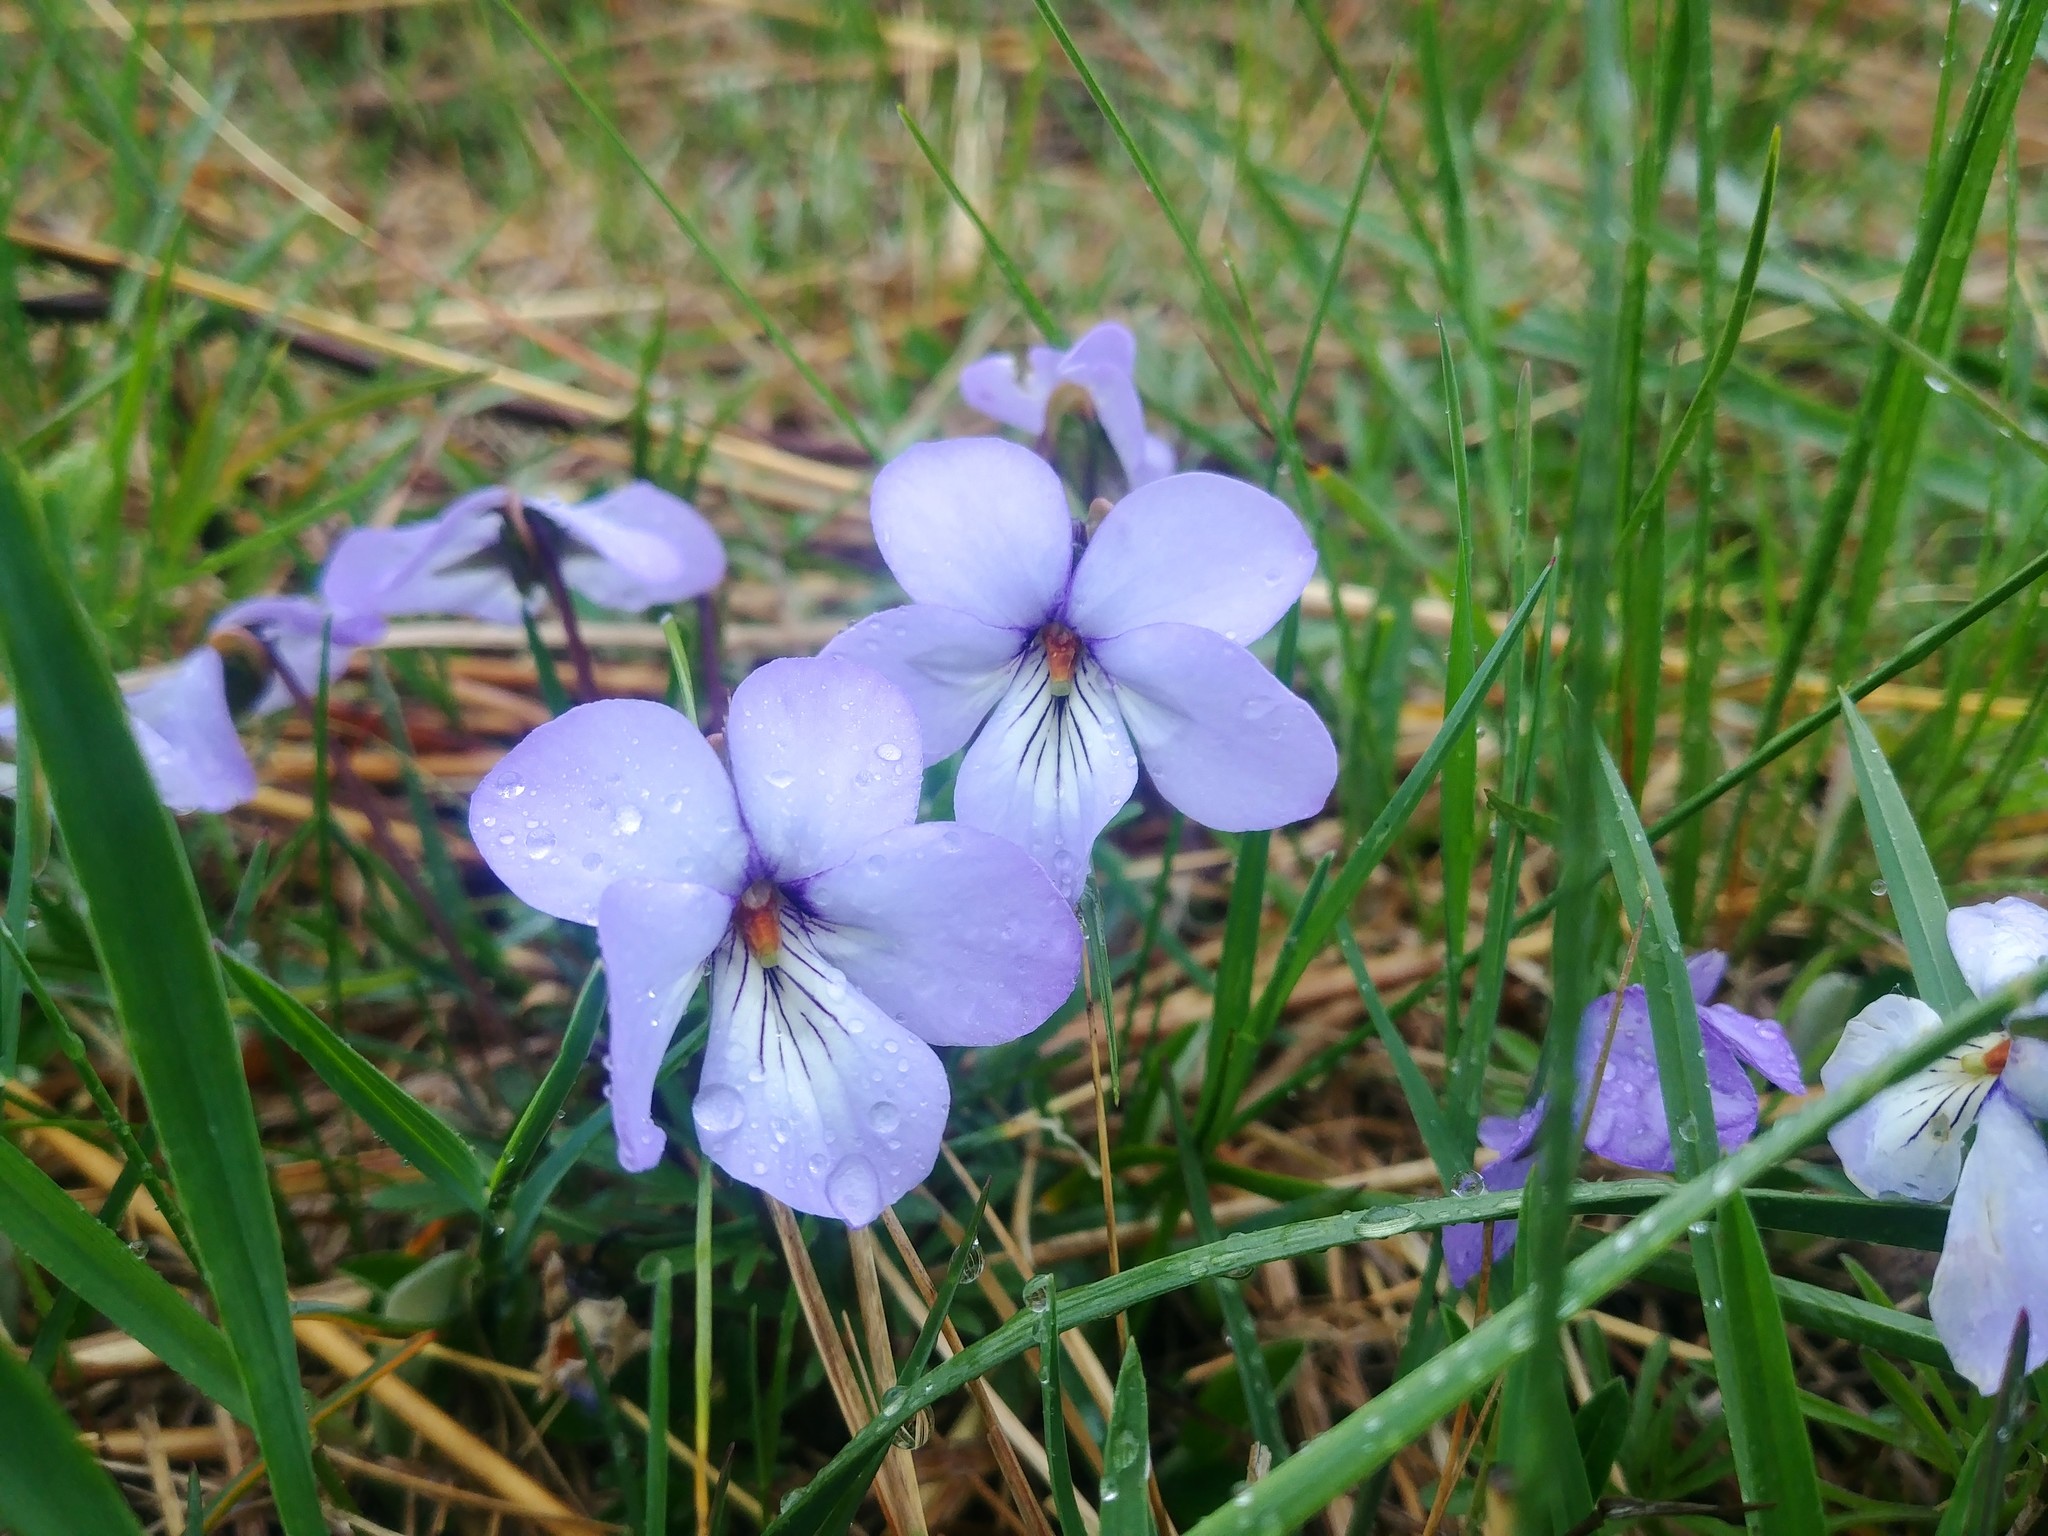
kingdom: Plantae
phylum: Tracheophyta
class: Magnoliopsida
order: Malpighiales
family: Violaceae
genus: Viola
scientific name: Viola pedata
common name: Pansy violet
